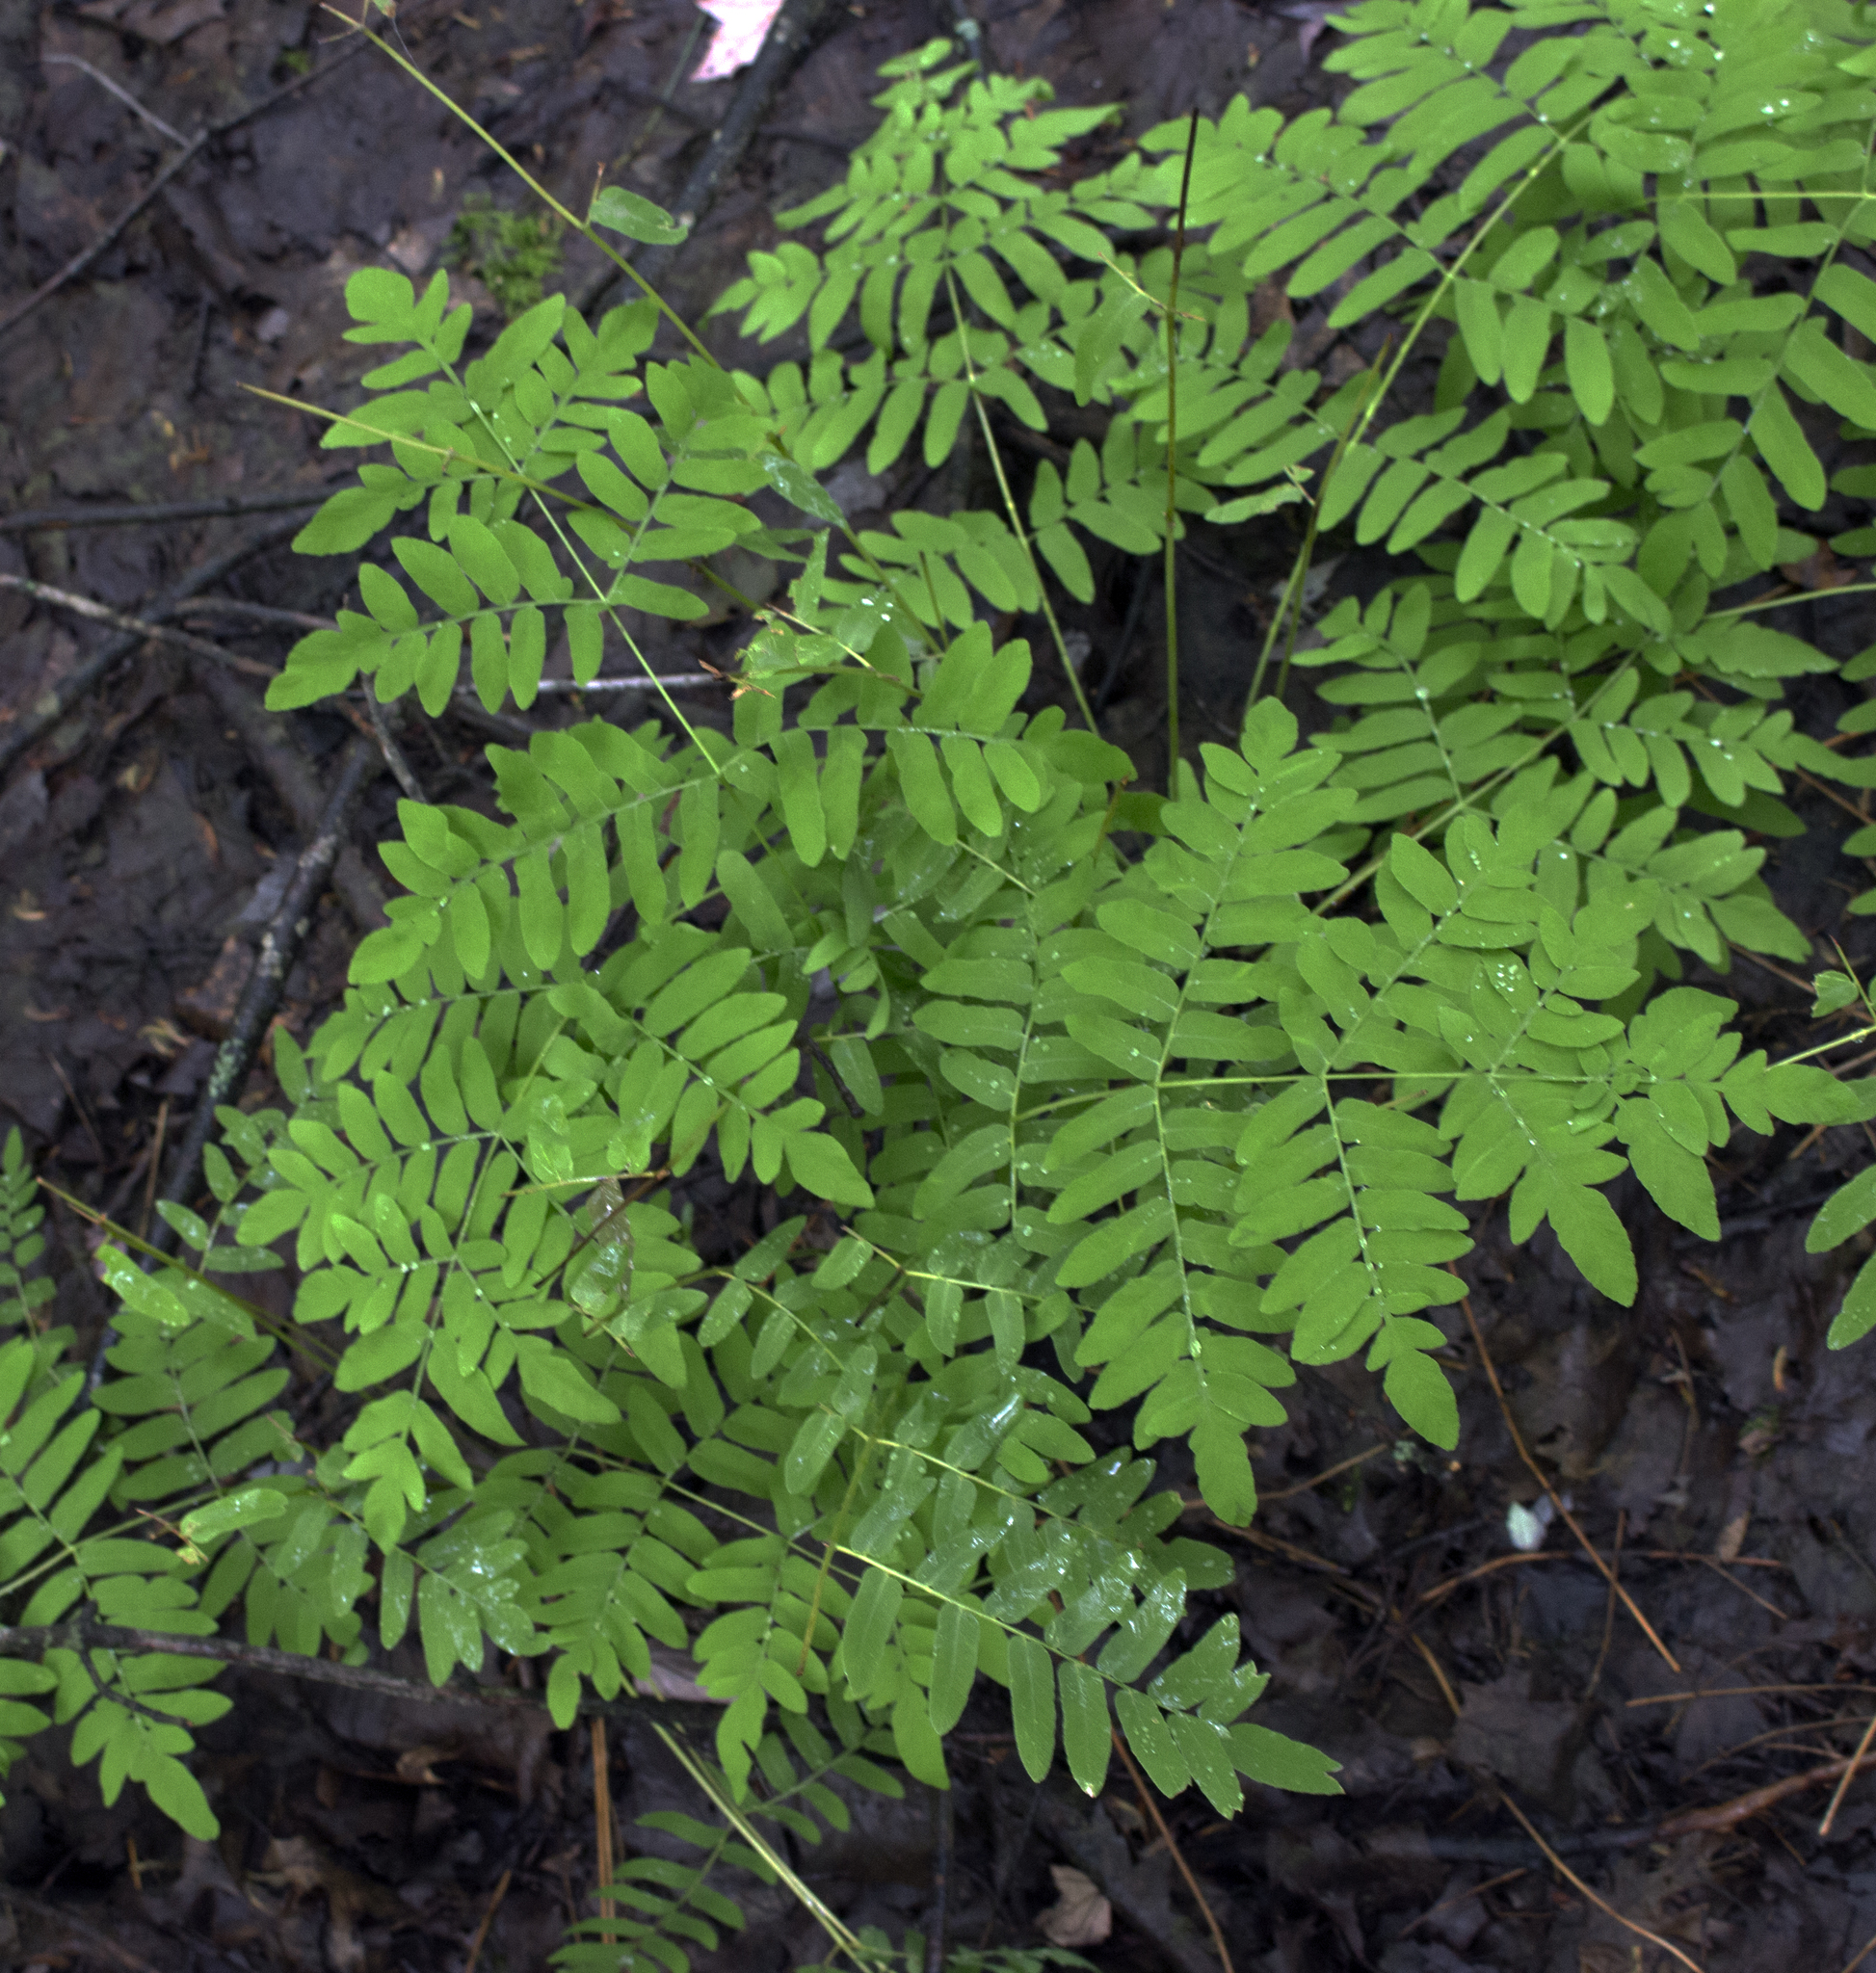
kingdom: Plantae
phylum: Tracheophyta
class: Polypodiopsida
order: Osmundales
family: Osmundaceae
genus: Osmunda
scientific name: Osmunda spectabilis
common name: American royal fern
